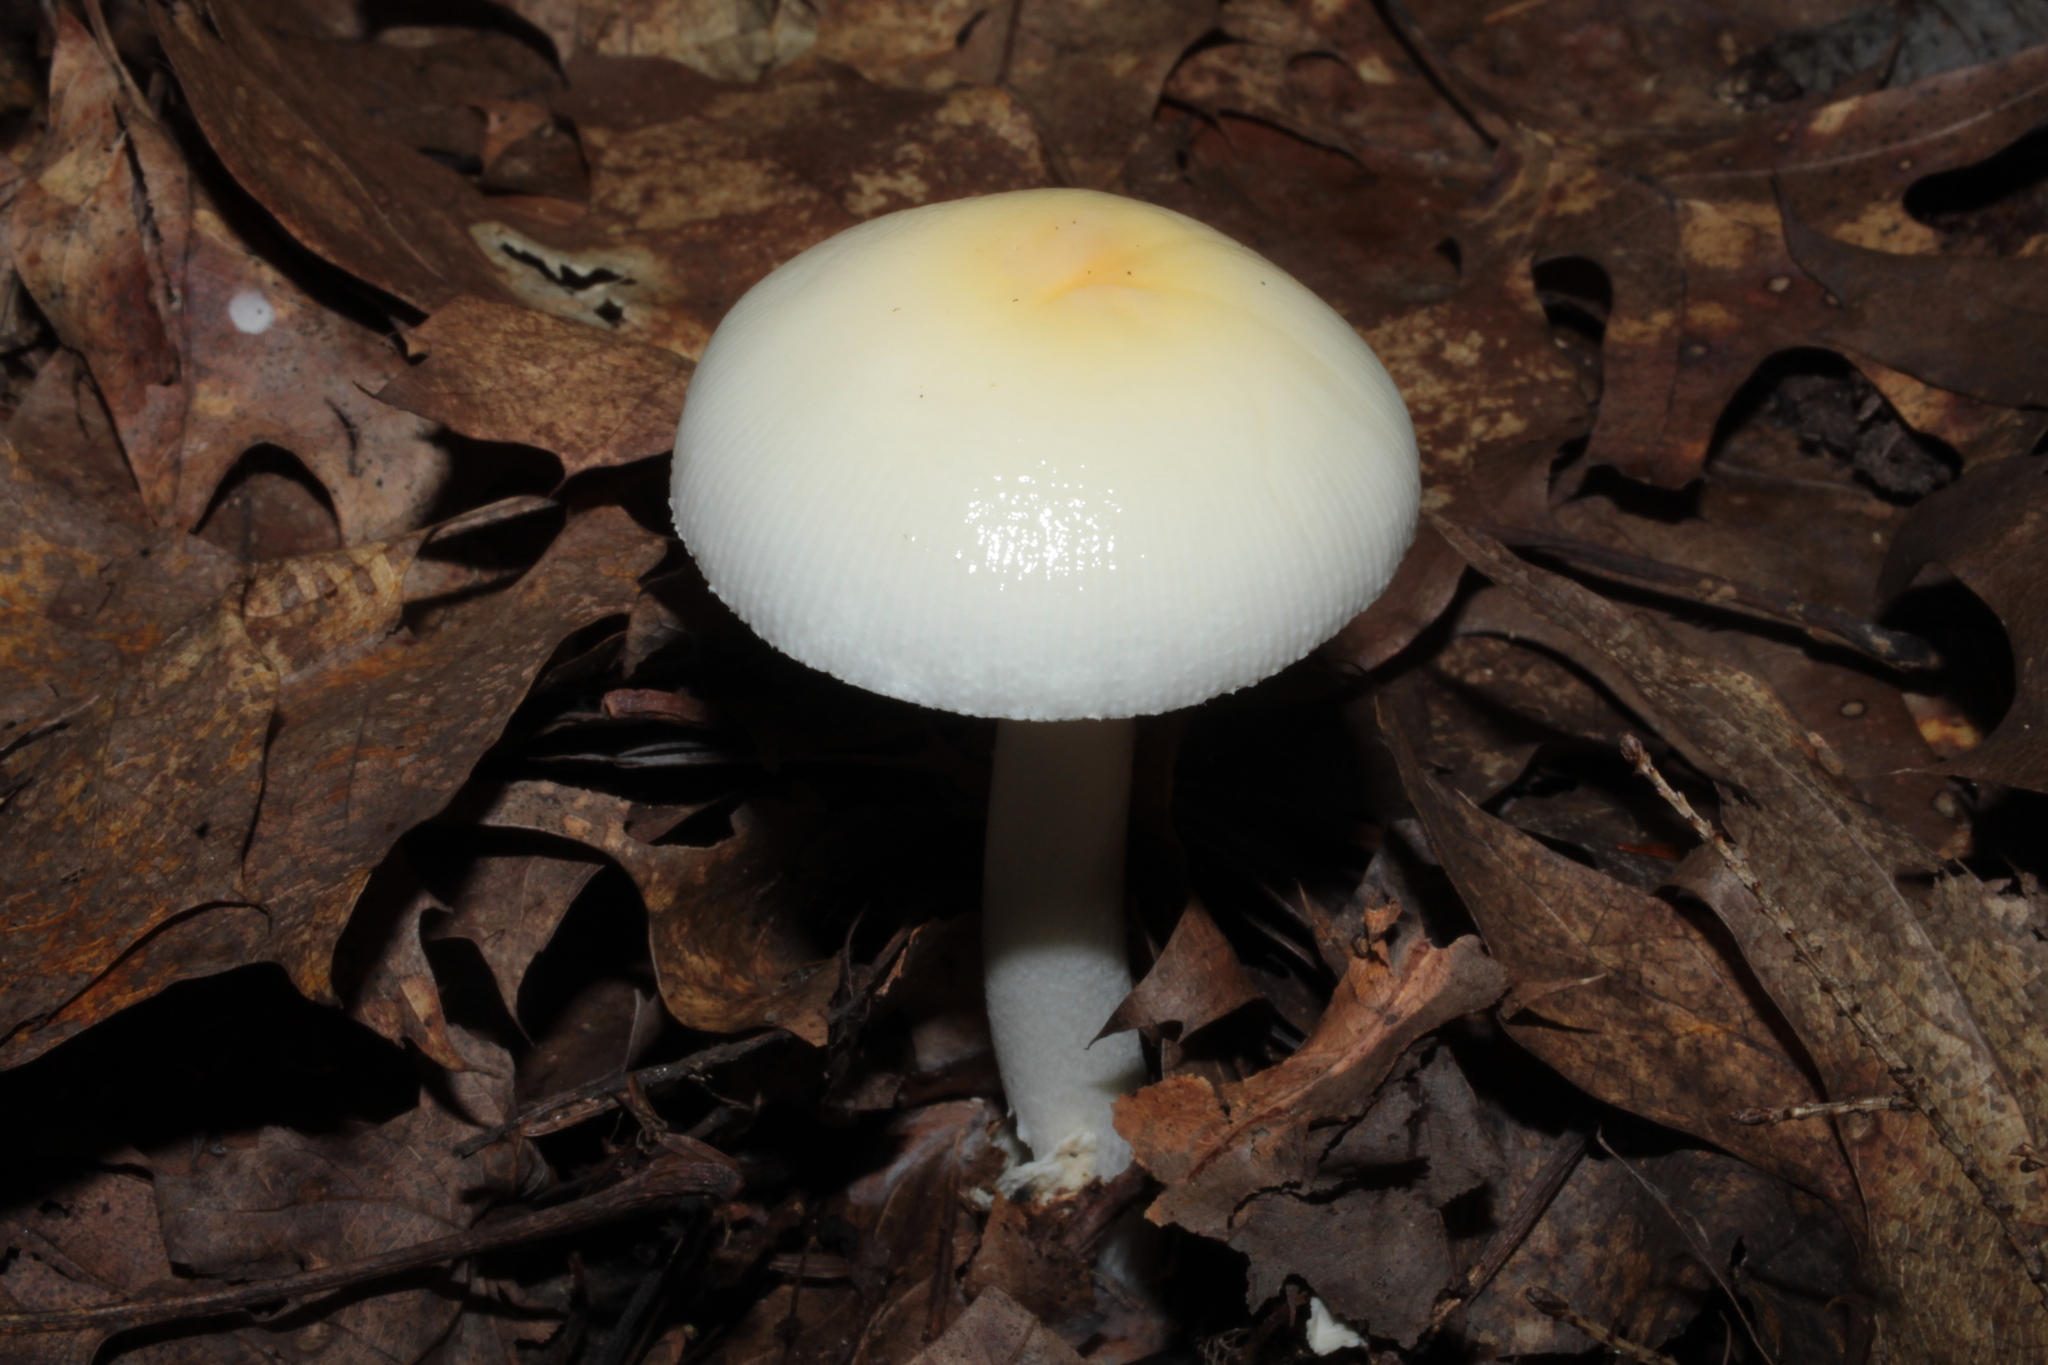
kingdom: Fungi
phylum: Basidiomycota
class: Agaricomycetes
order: Agaricales
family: Amanitaceae
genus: Amanita
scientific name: Amanita albocreata
